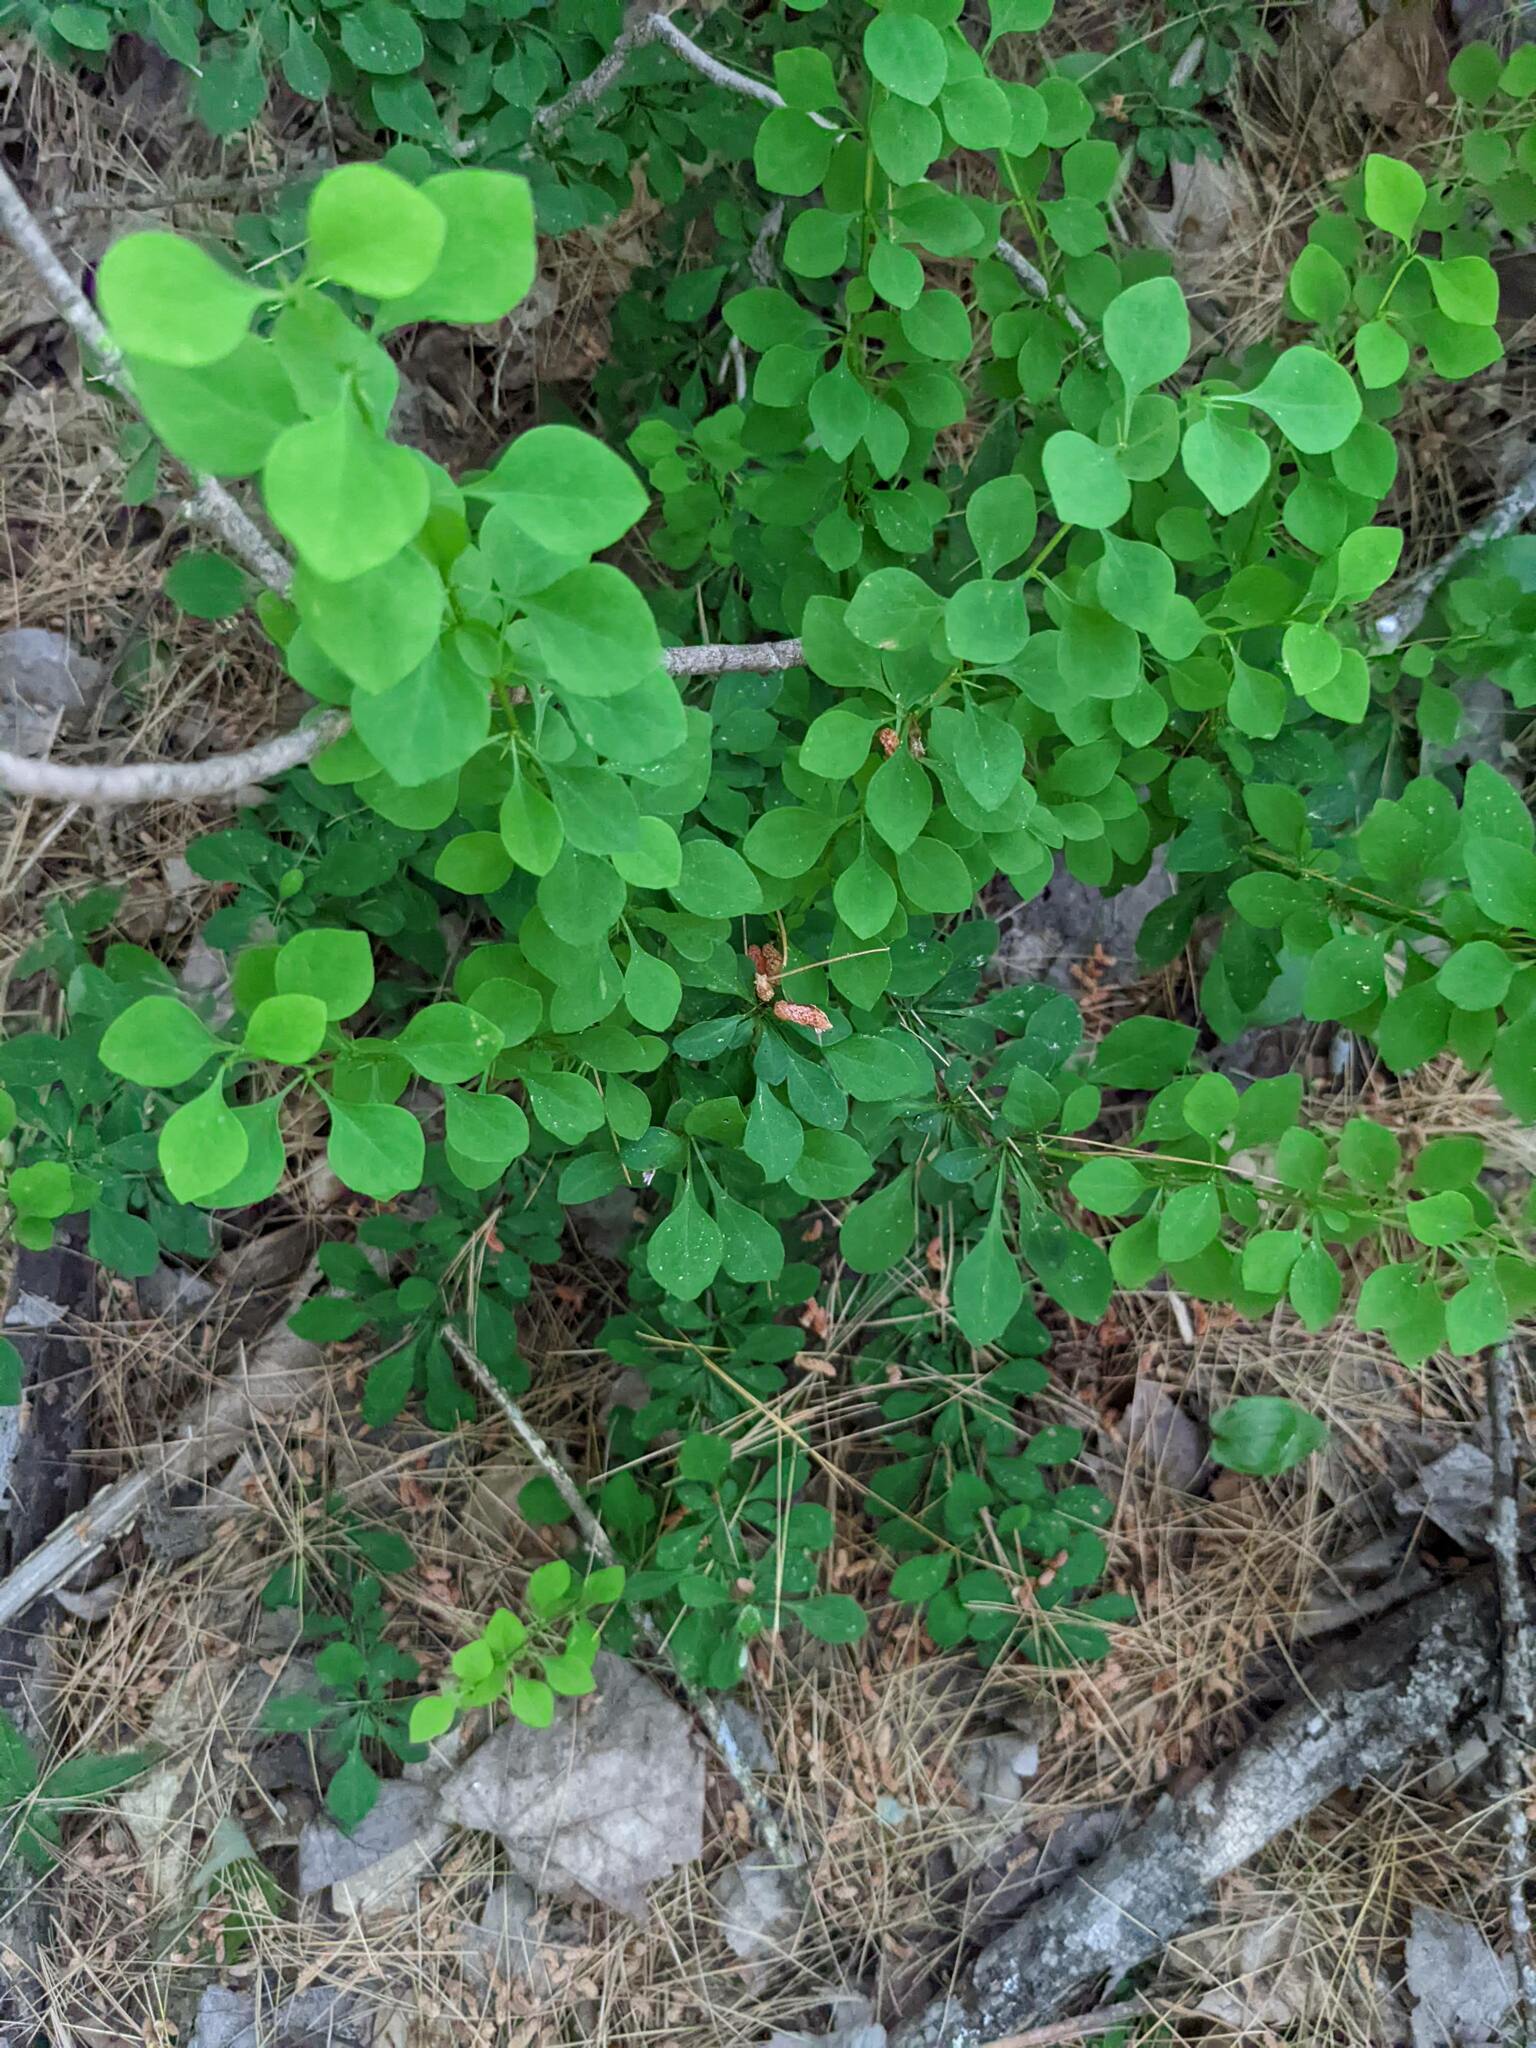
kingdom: Plantae
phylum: Tracheophyta
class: Magnoliopsida
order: Ranunculales
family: Berberidaceae
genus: Berberis
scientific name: Berberis thunbergii
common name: Japanese barberry
